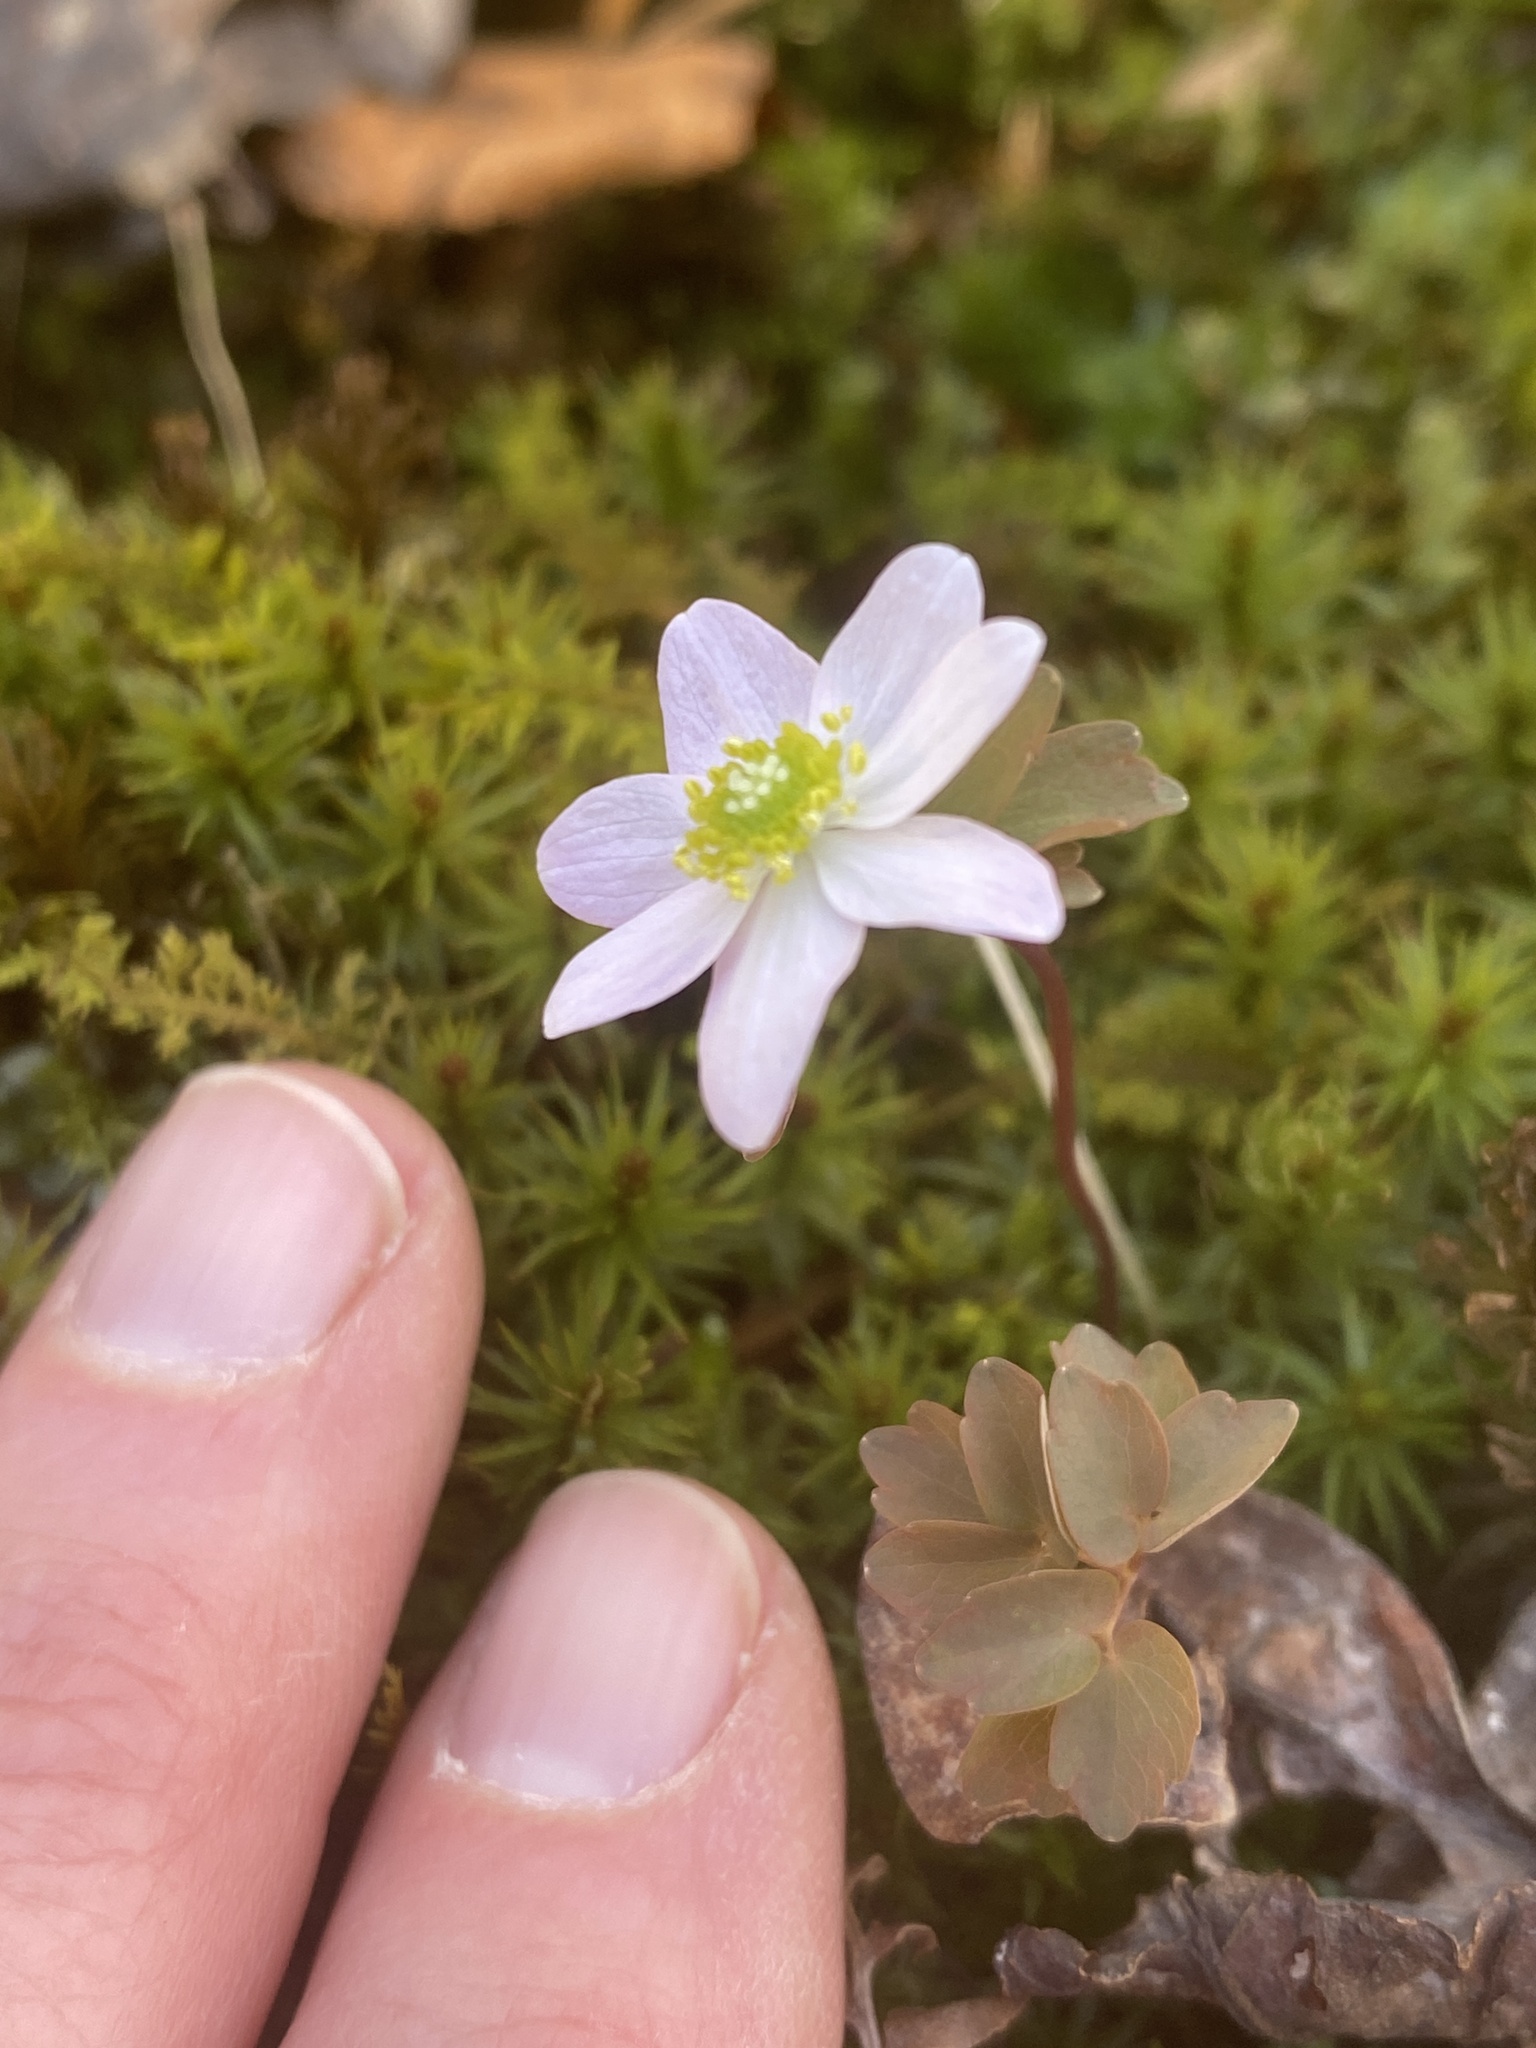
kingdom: Plantae
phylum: Tracheophyta
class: Magnoliopsida
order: Ranunculales
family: Ranunculaceae
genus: Thalictrum
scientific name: Thalictrum thalictroides
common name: Rue-anemone
